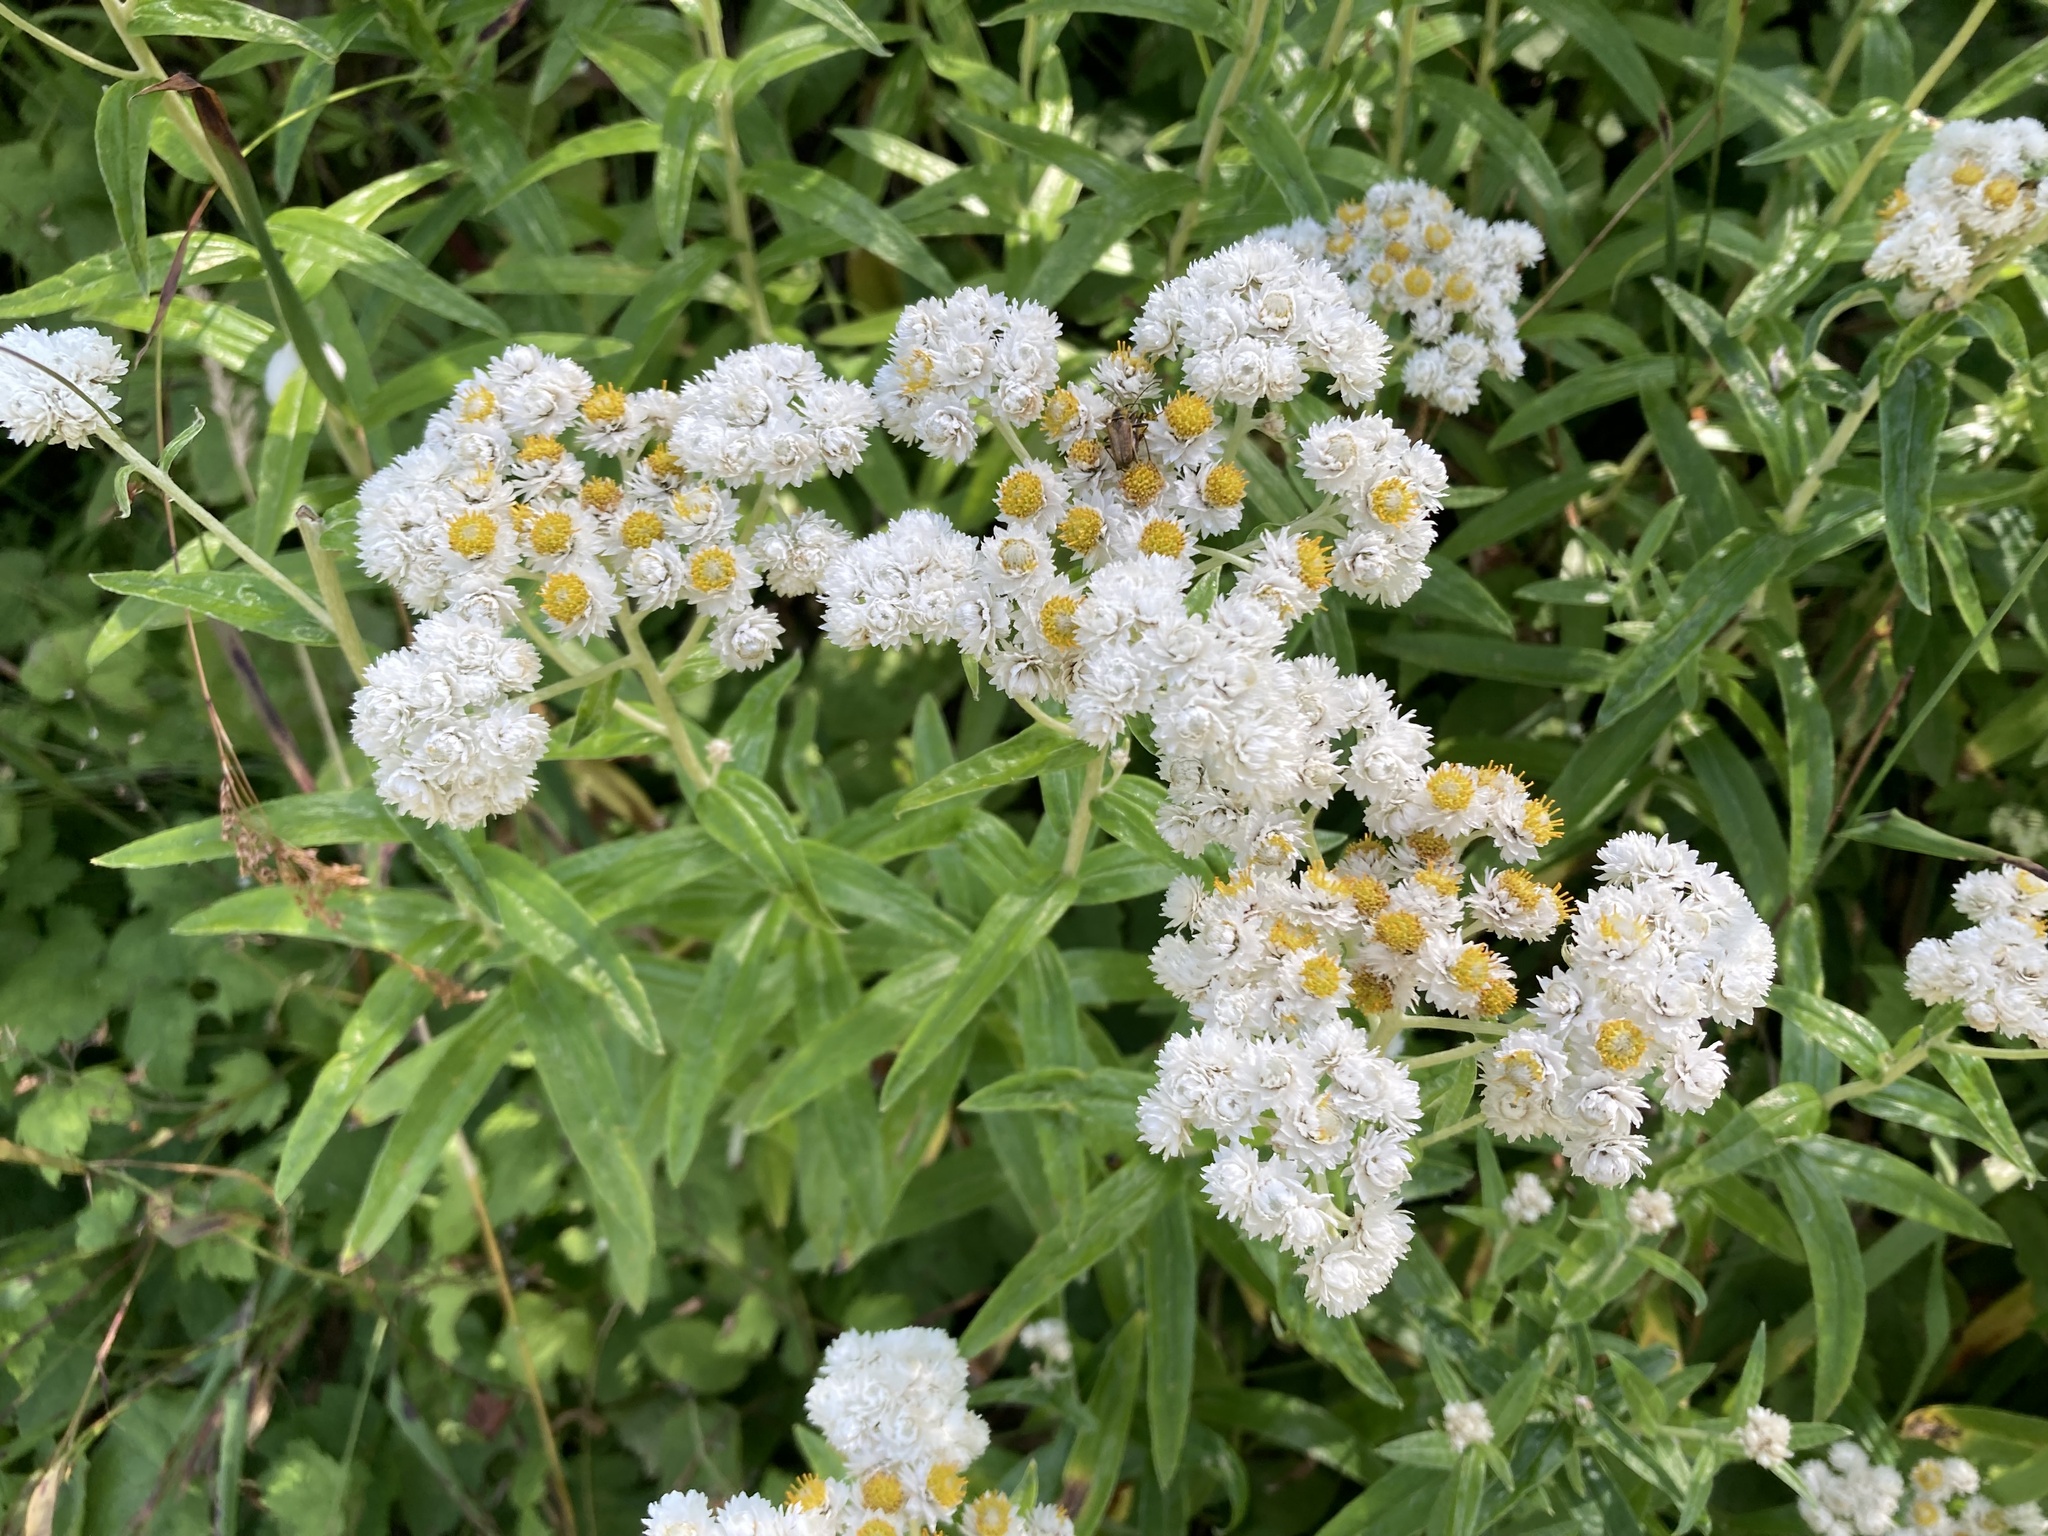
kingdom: Plantae
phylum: Tracheophyta
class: Magnoliopsida
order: Asterales
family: Asteraceae
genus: Anaphalis
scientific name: Anaphalis margaritacea
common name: Pearly everlasting
